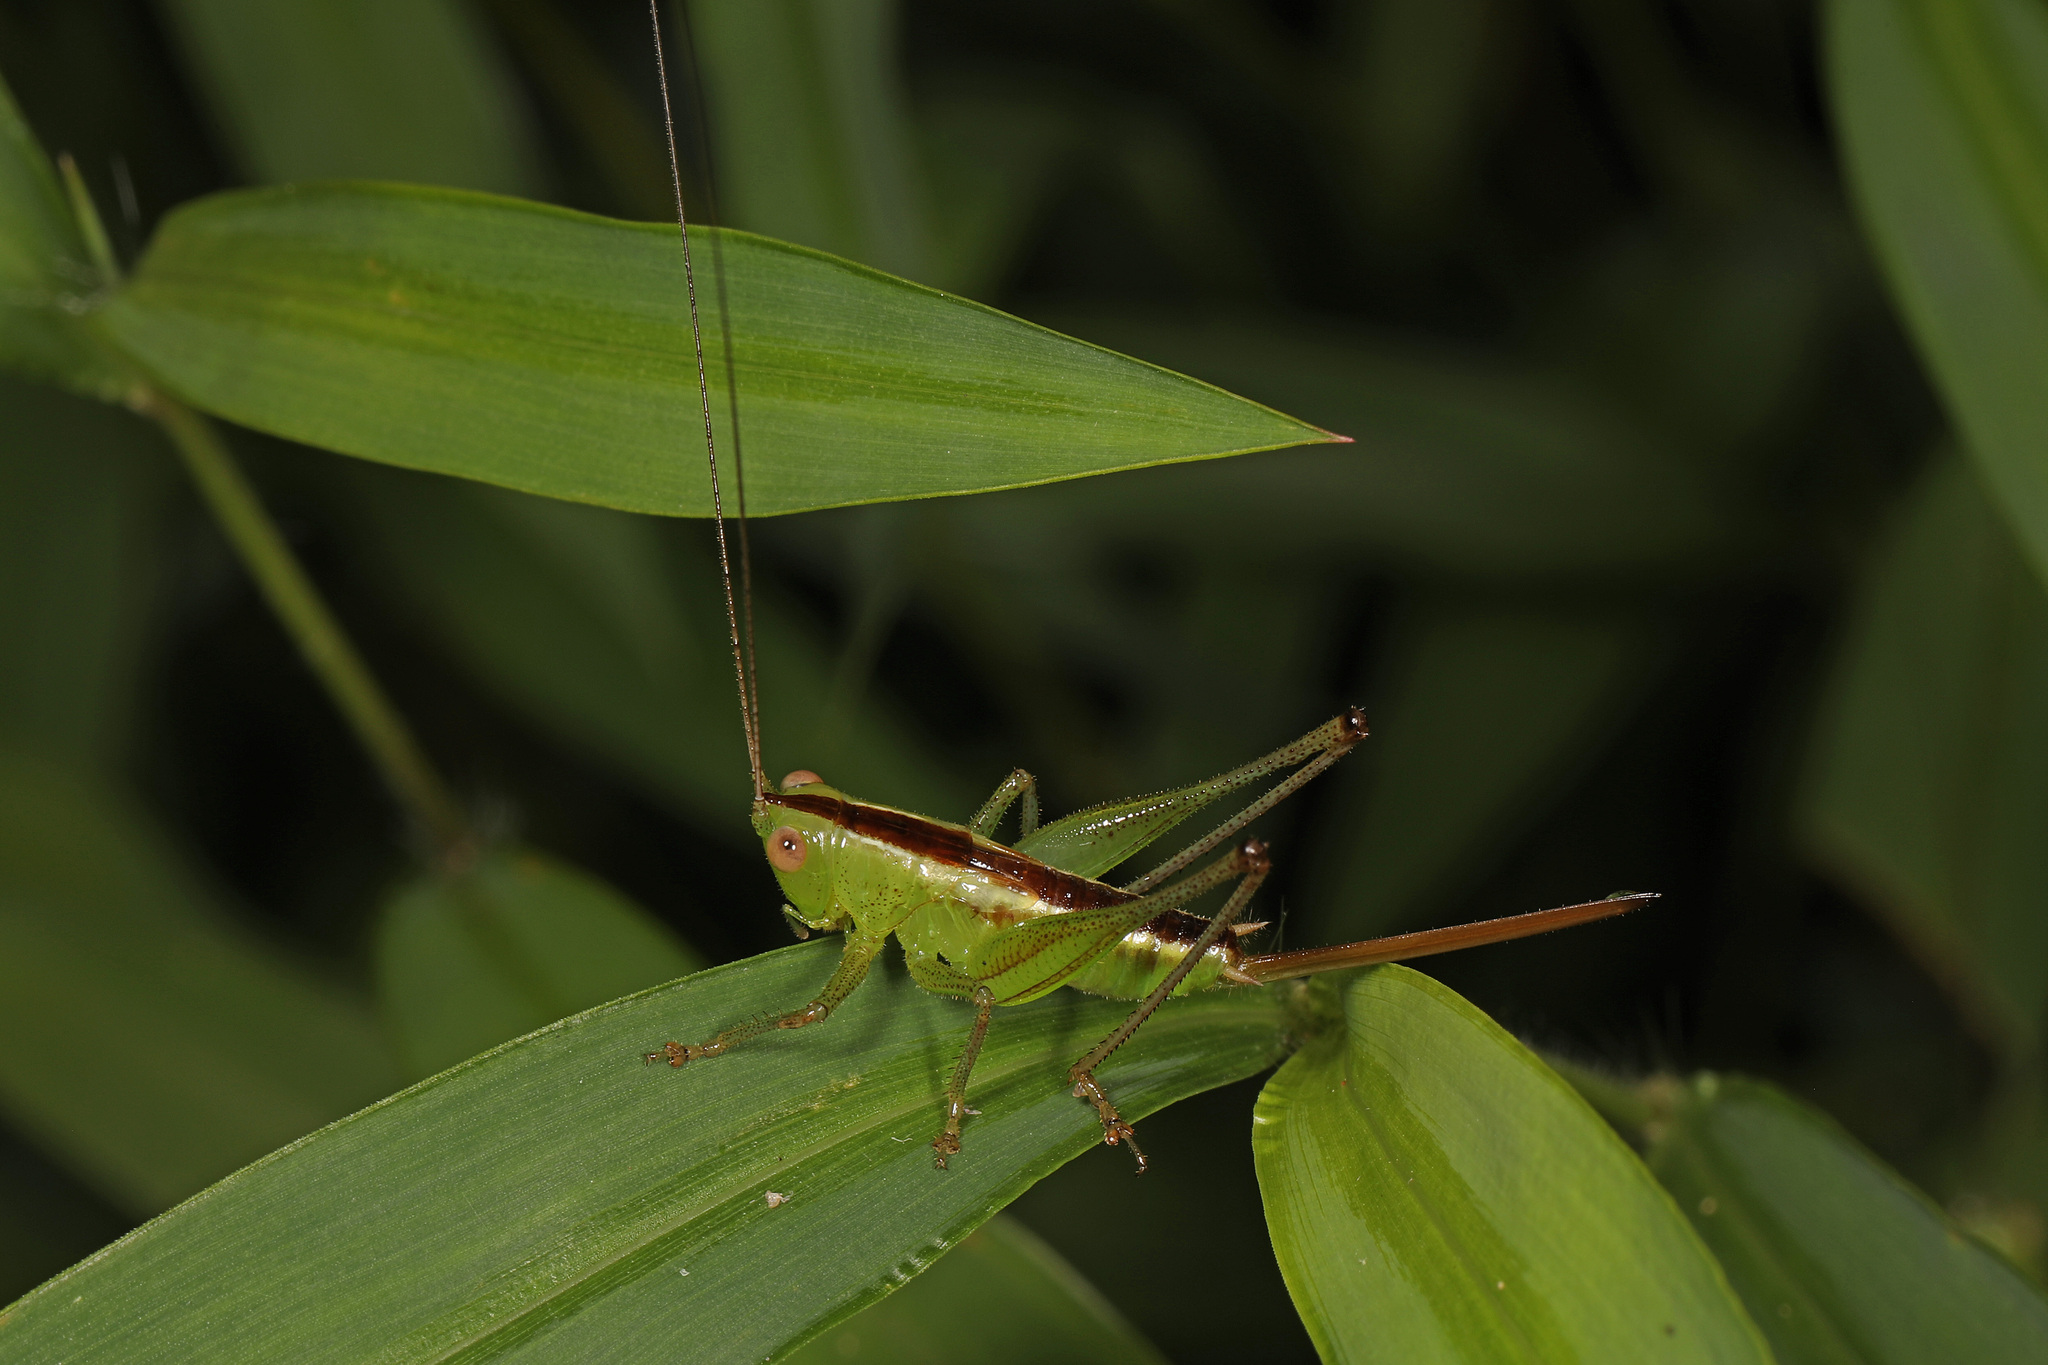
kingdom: Animalia
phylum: Arthropoda
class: Insecta
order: Orthoptera
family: Tettigoniidae
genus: Conocephalus
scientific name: Conocephalus brevipennis
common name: Short-winged meadow katydid
